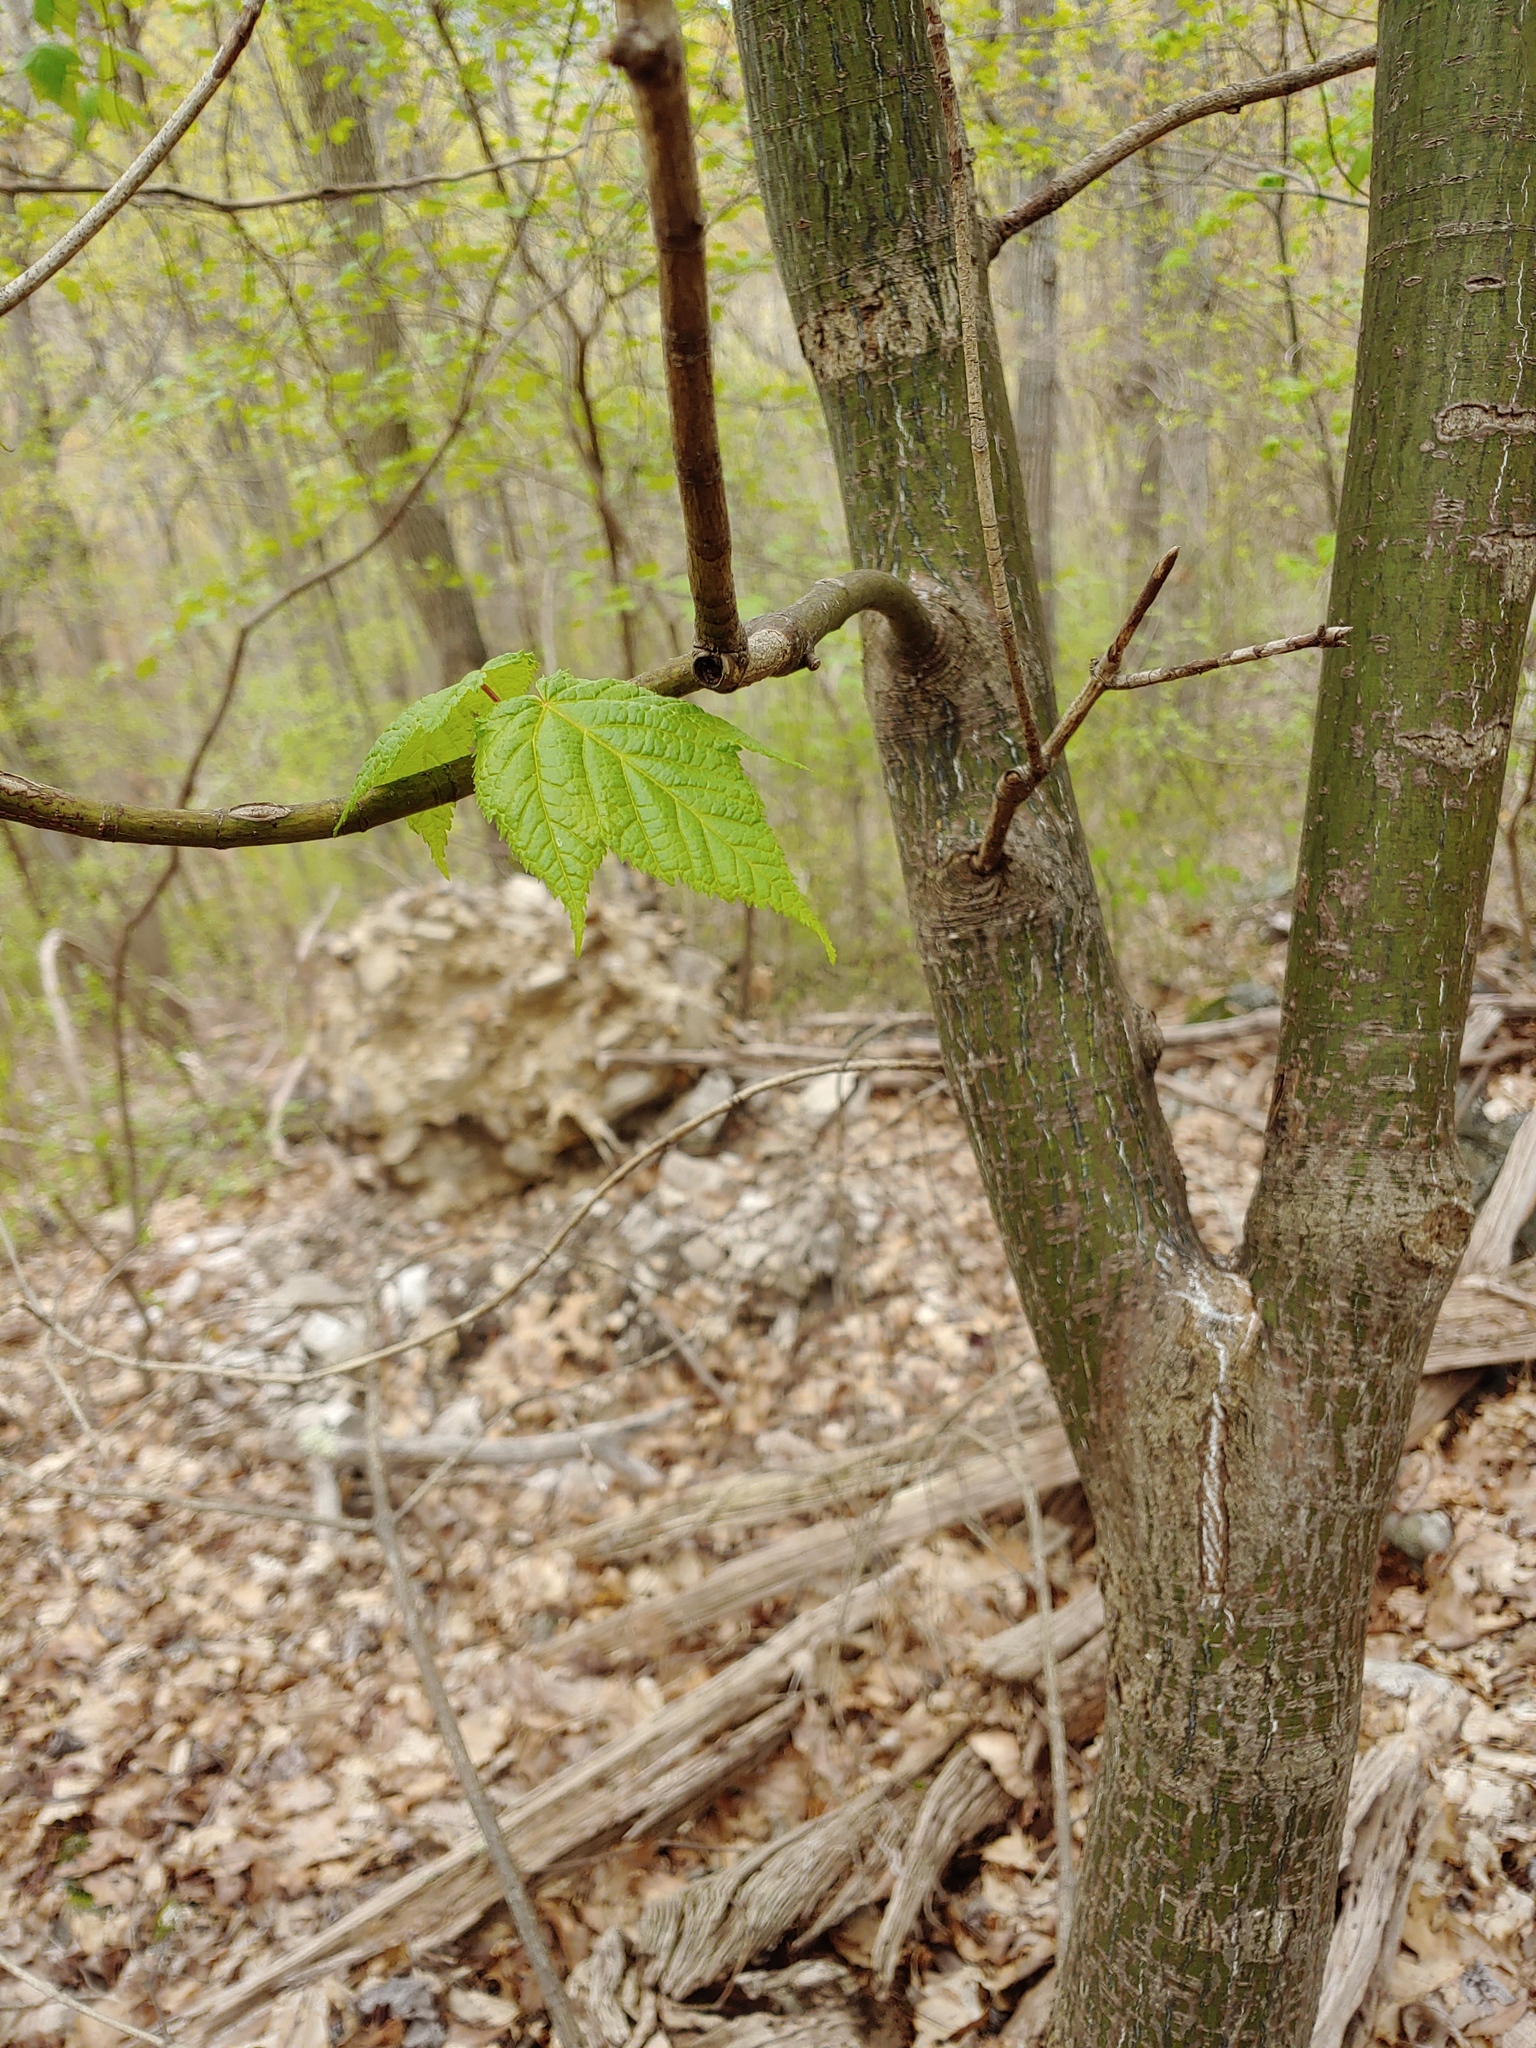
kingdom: Plantae
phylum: Tracheophyta
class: Magnoliopsida
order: Sapindales
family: Sapindaceae
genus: Acer
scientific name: Acer pensylvanicum
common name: Moosewood
